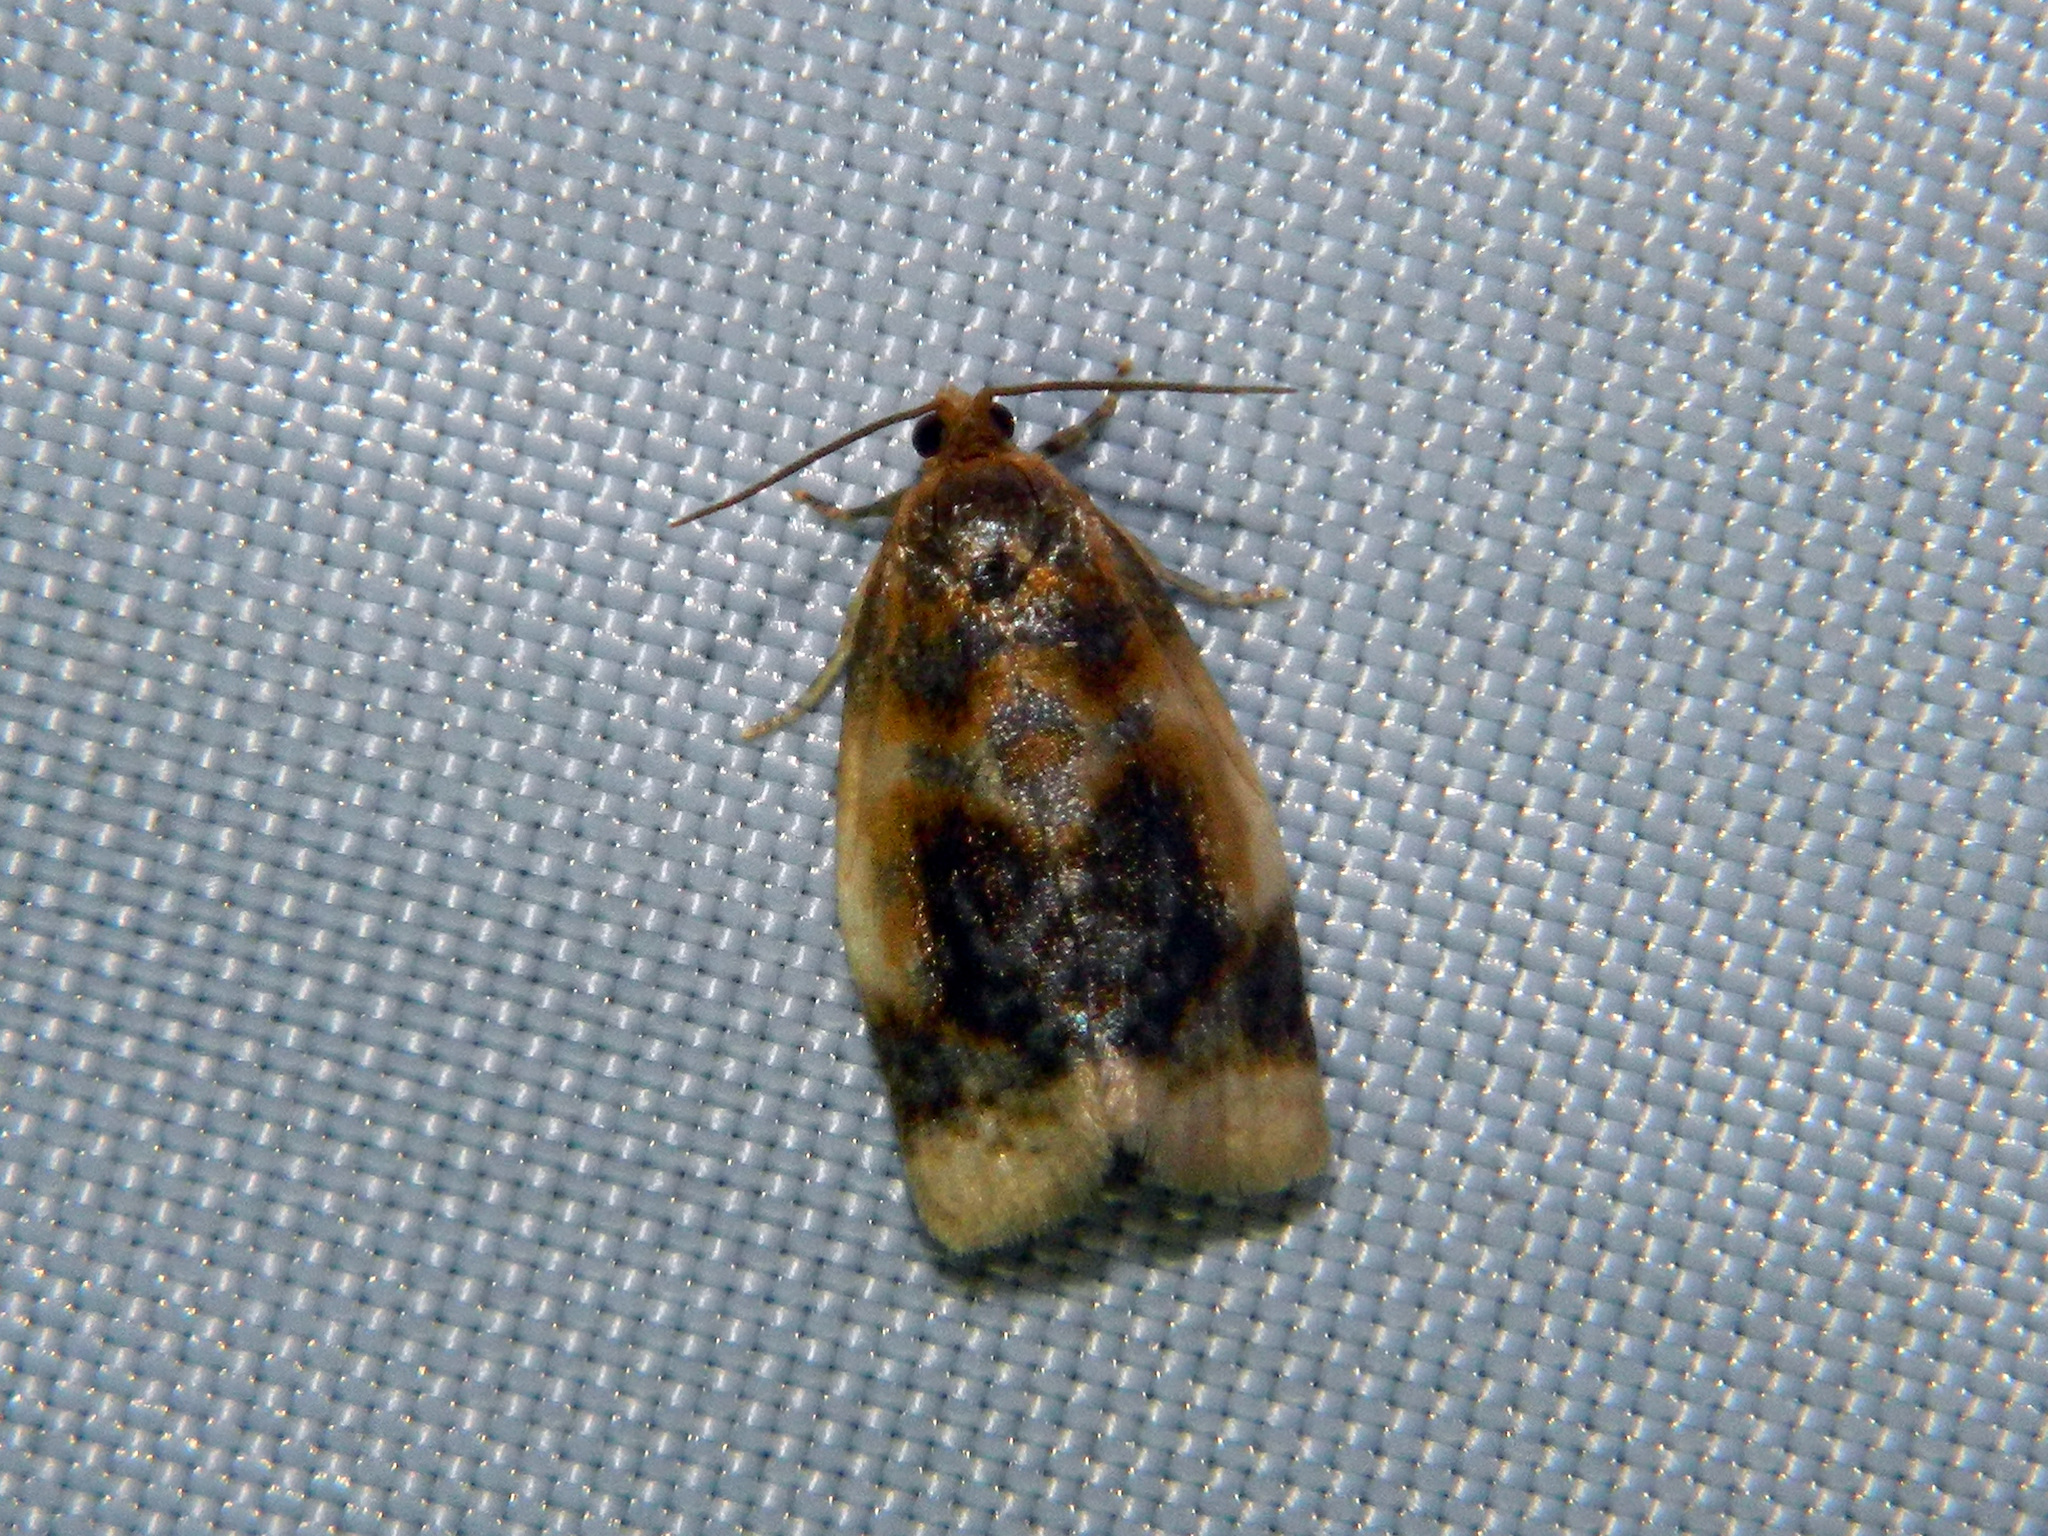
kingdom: Animalia
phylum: Arthropoda
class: Insecta
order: Lepidoptera
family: Tortricidae
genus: Clepsis
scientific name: Clepsis melaleucanus
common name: American apple tortrix
